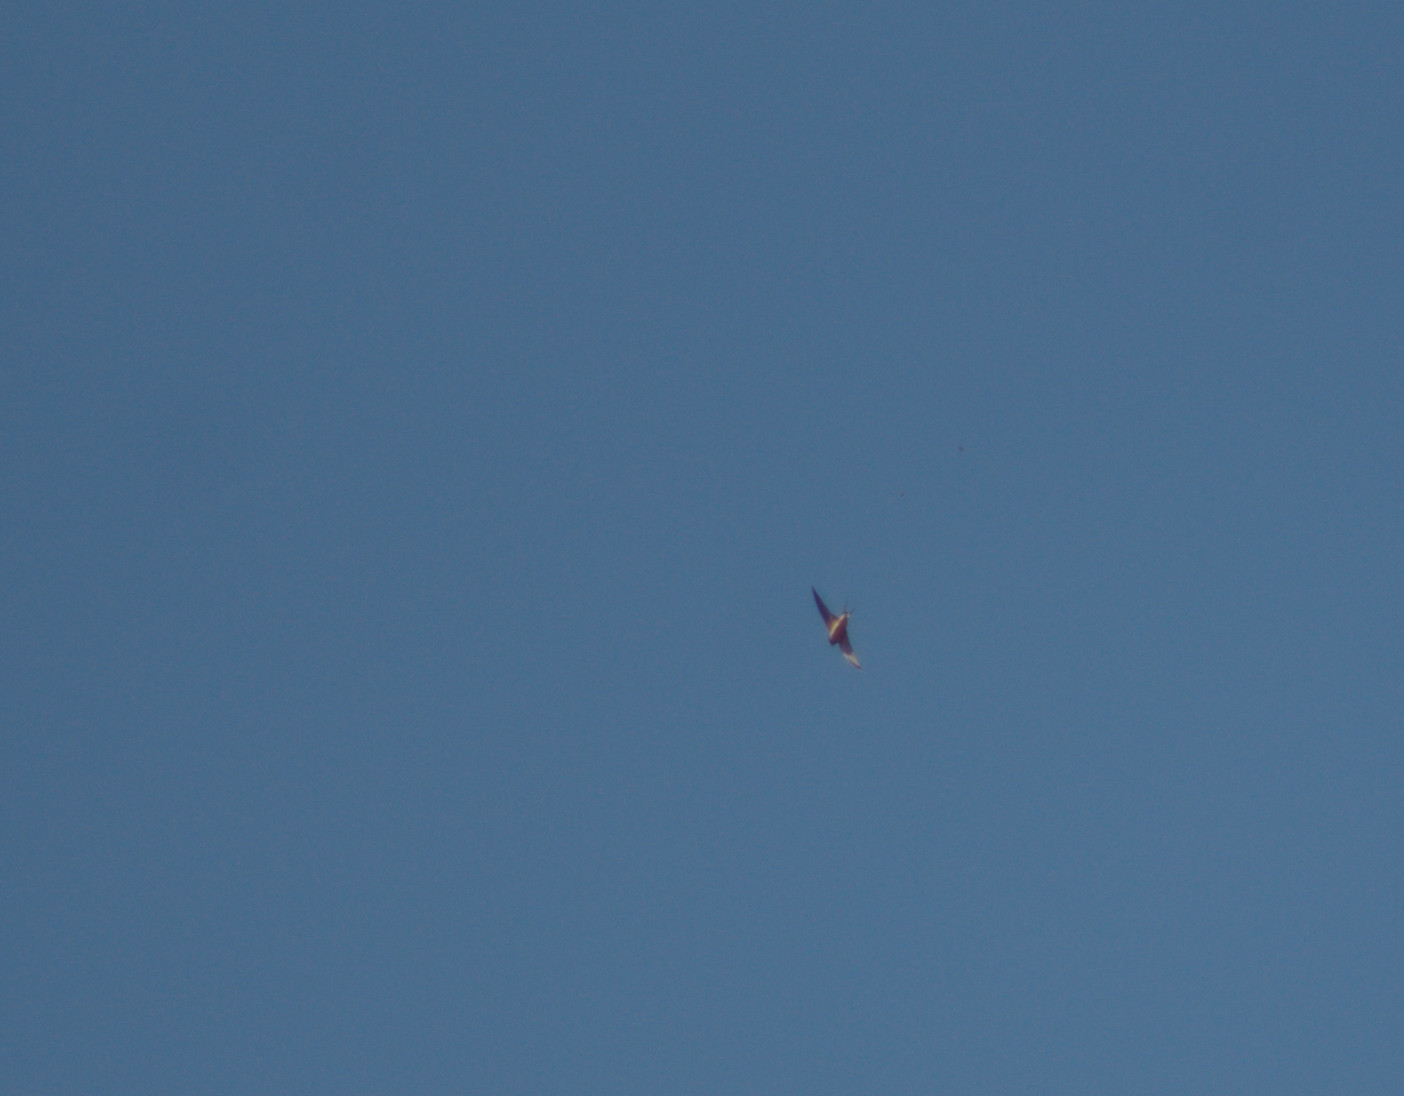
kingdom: Animalia
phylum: Chordata
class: Aves
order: Passeriformes
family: Hirundinidae
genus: Hirundo
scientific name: Hirundo rustica
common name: Barn swallow
